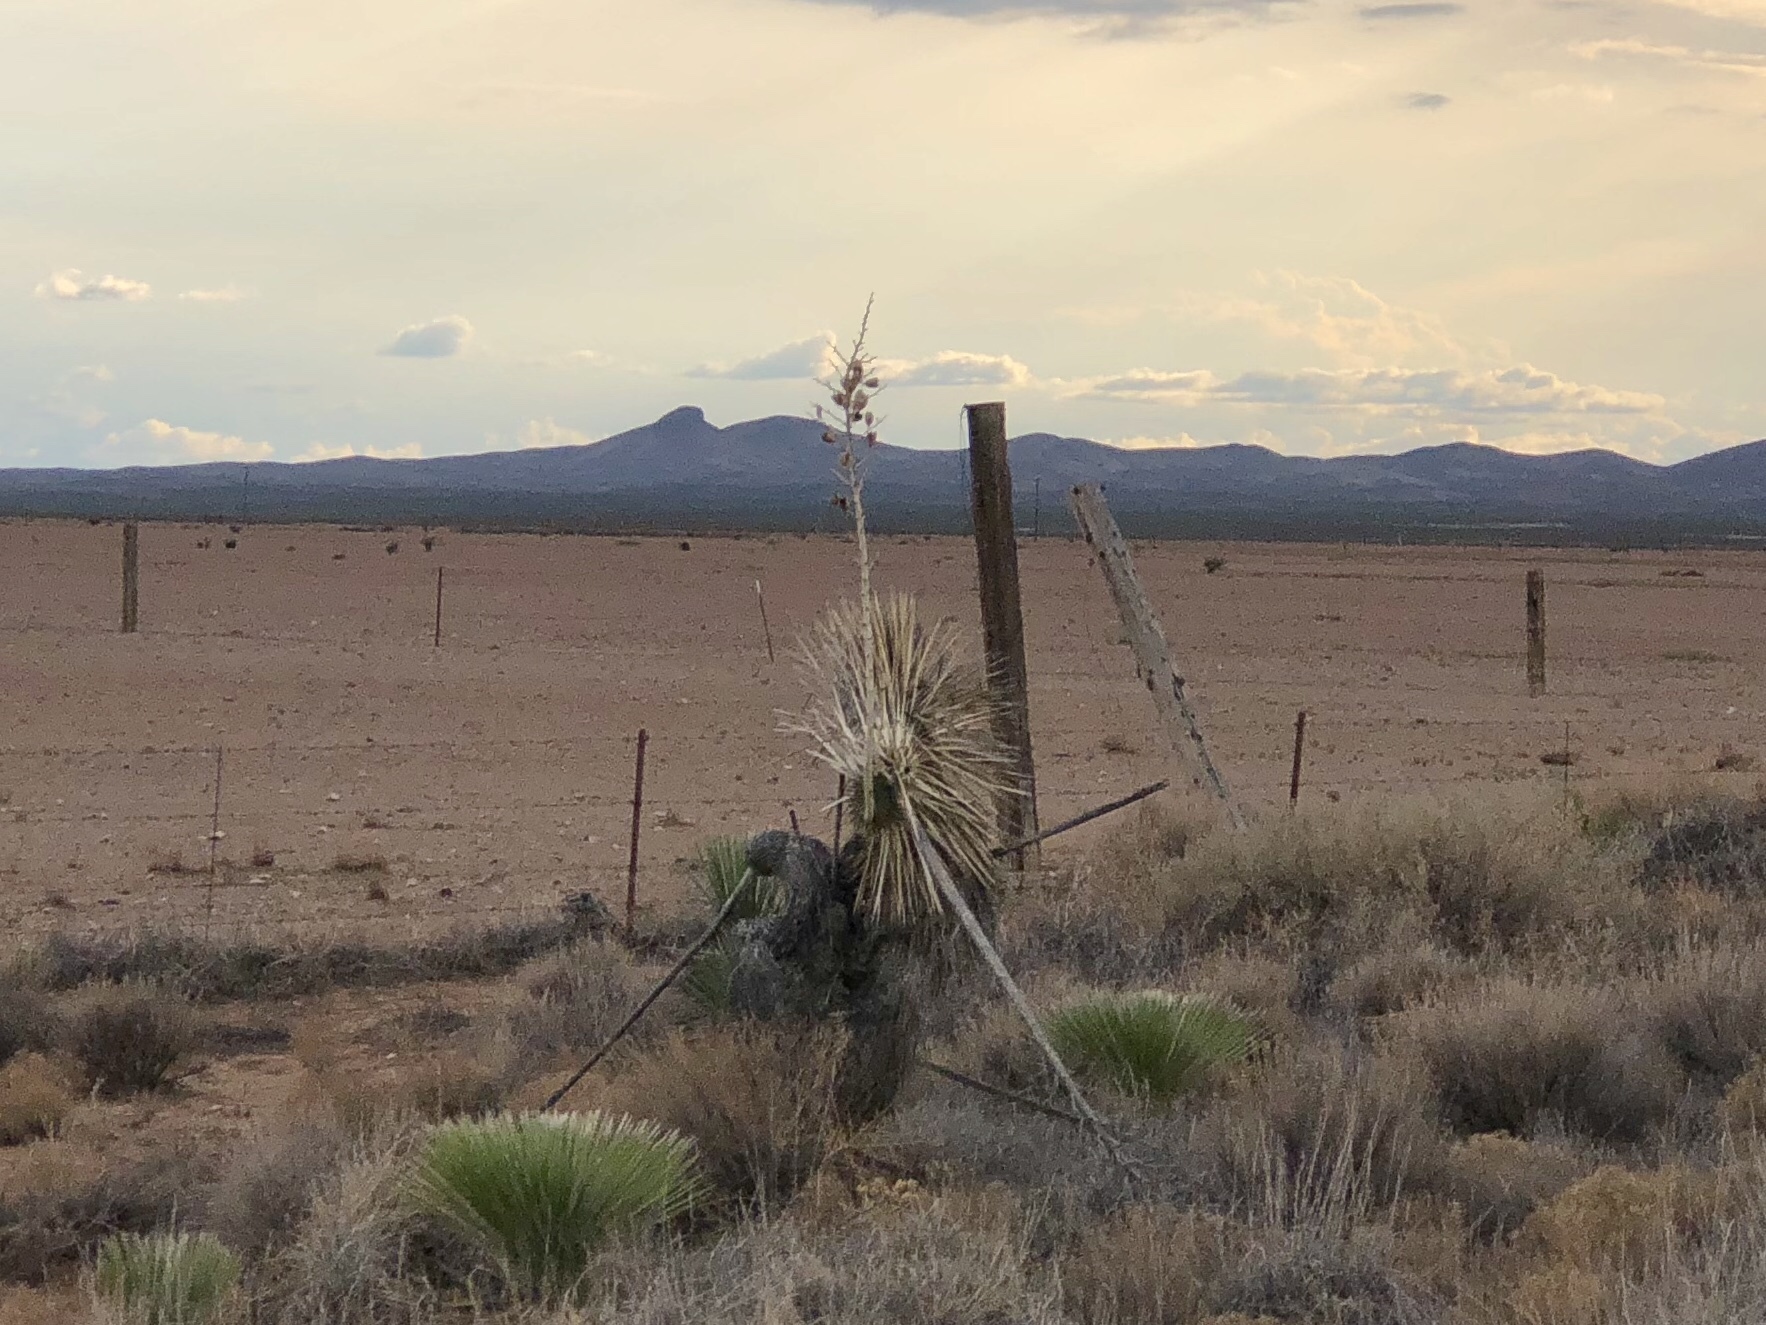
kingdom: Plantae
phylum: Tracheophyta
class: Liliopsida
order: Asparagales
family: Asparagaceae
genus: Yucca
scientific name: Yucca elata
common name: Palmella
